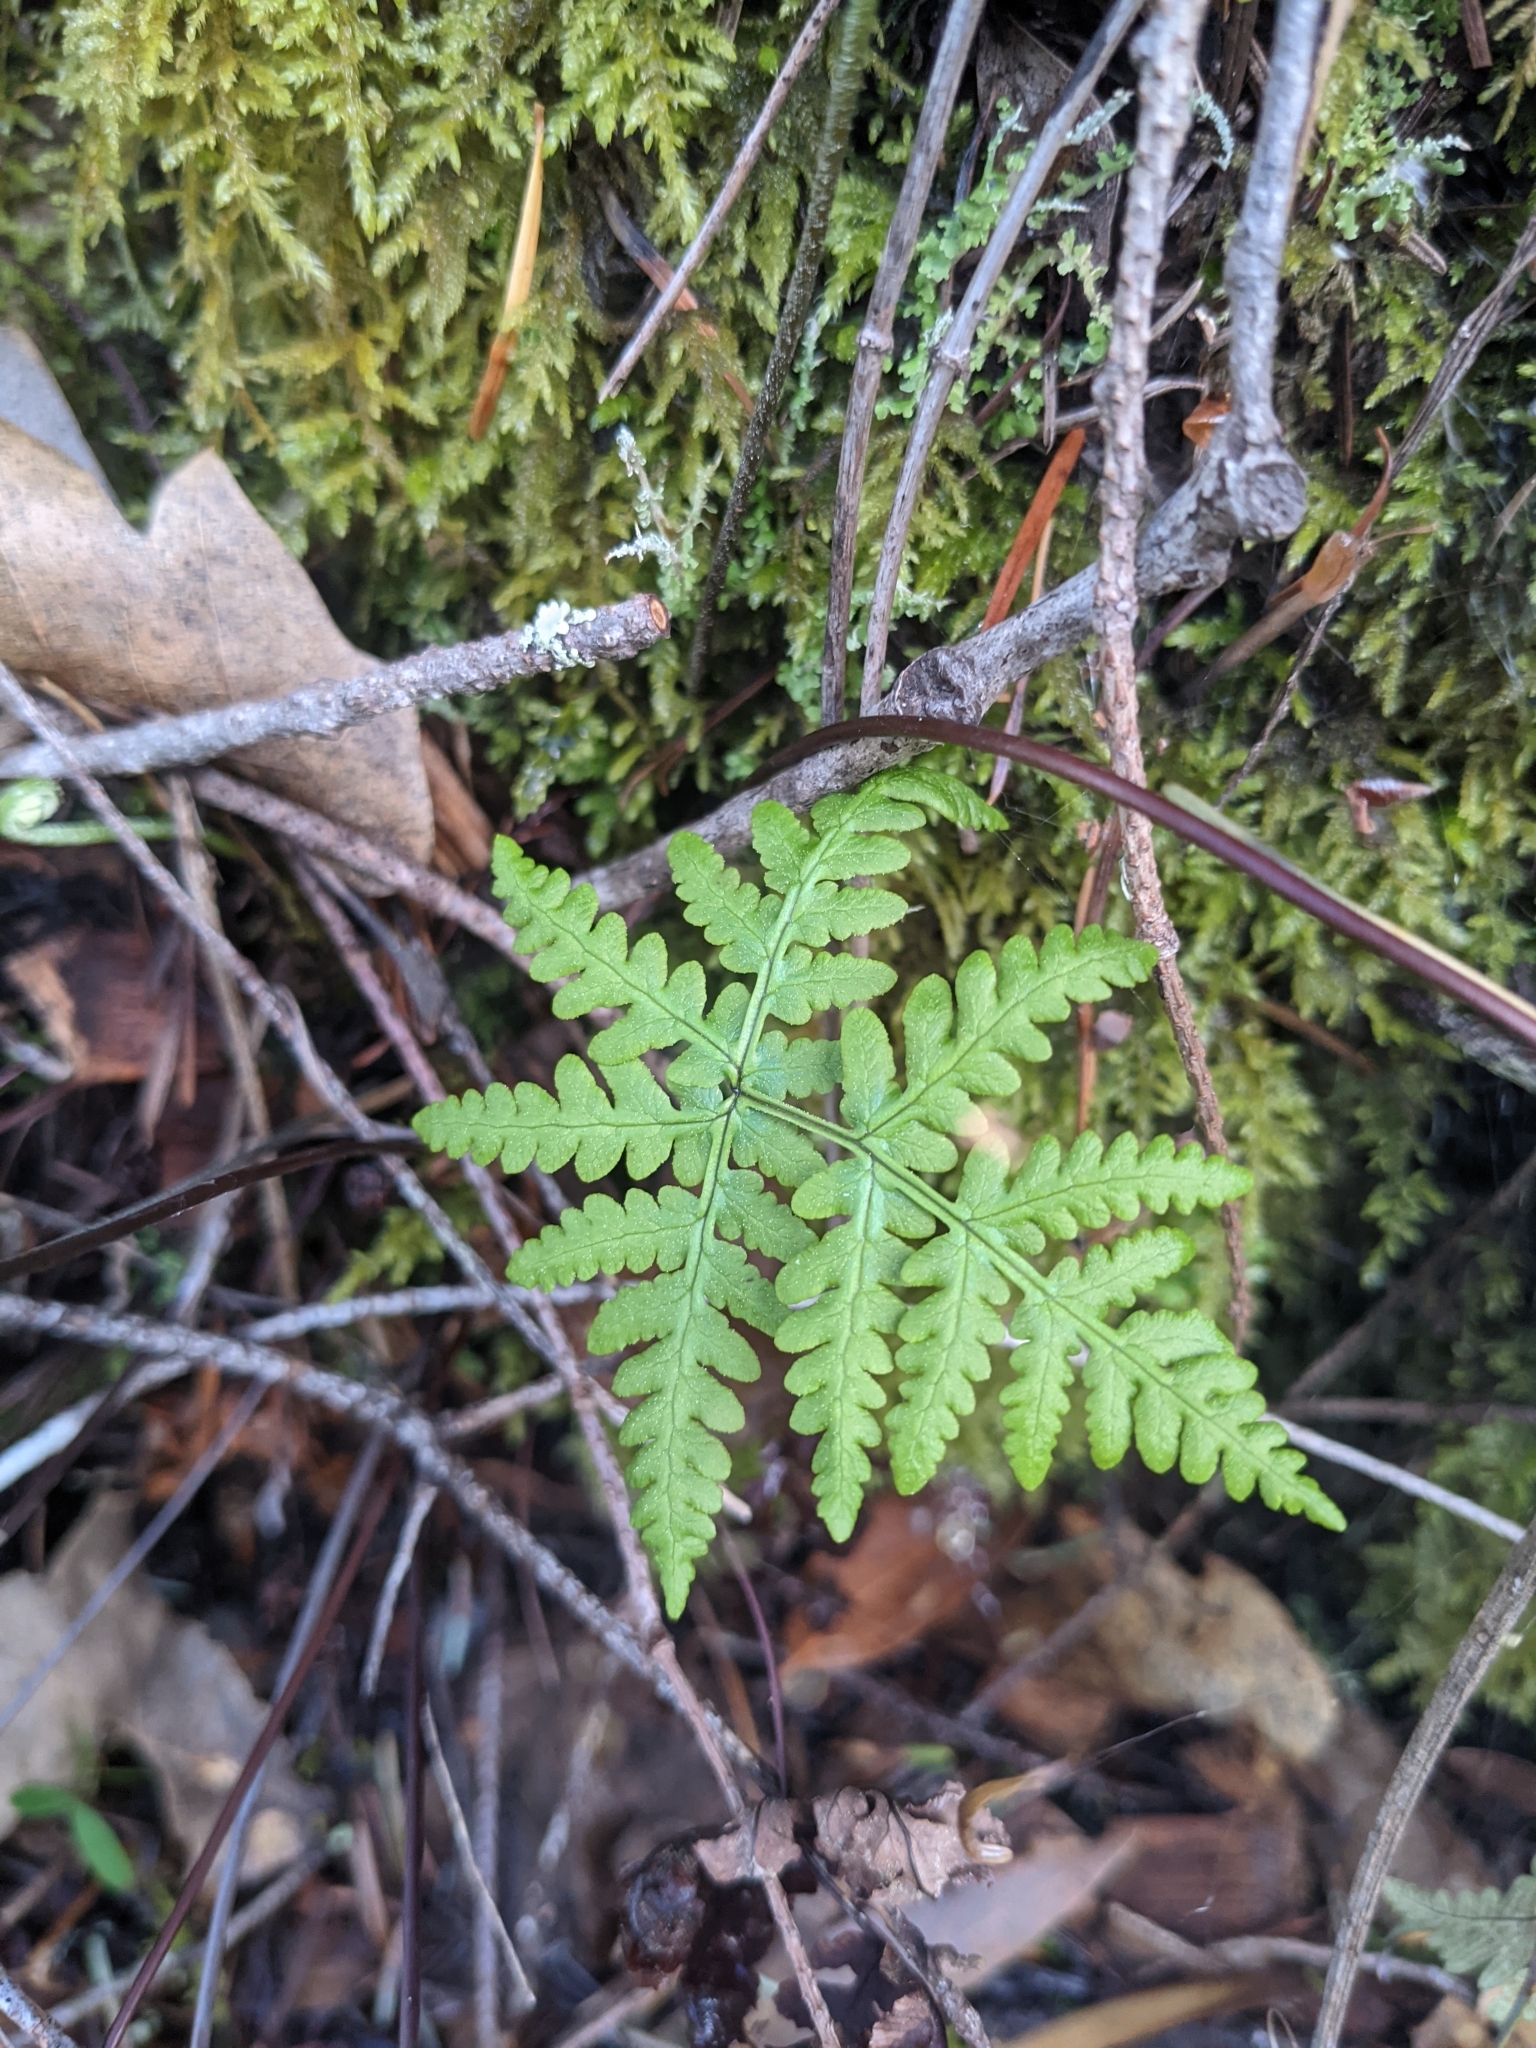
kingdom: Plantae
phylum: Tracheophyta
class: Polypodiopsida
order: Polypodiales
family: Pteridaceae
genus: Pentagramma
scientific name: Pentagramma triangularis
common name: Gold fern
